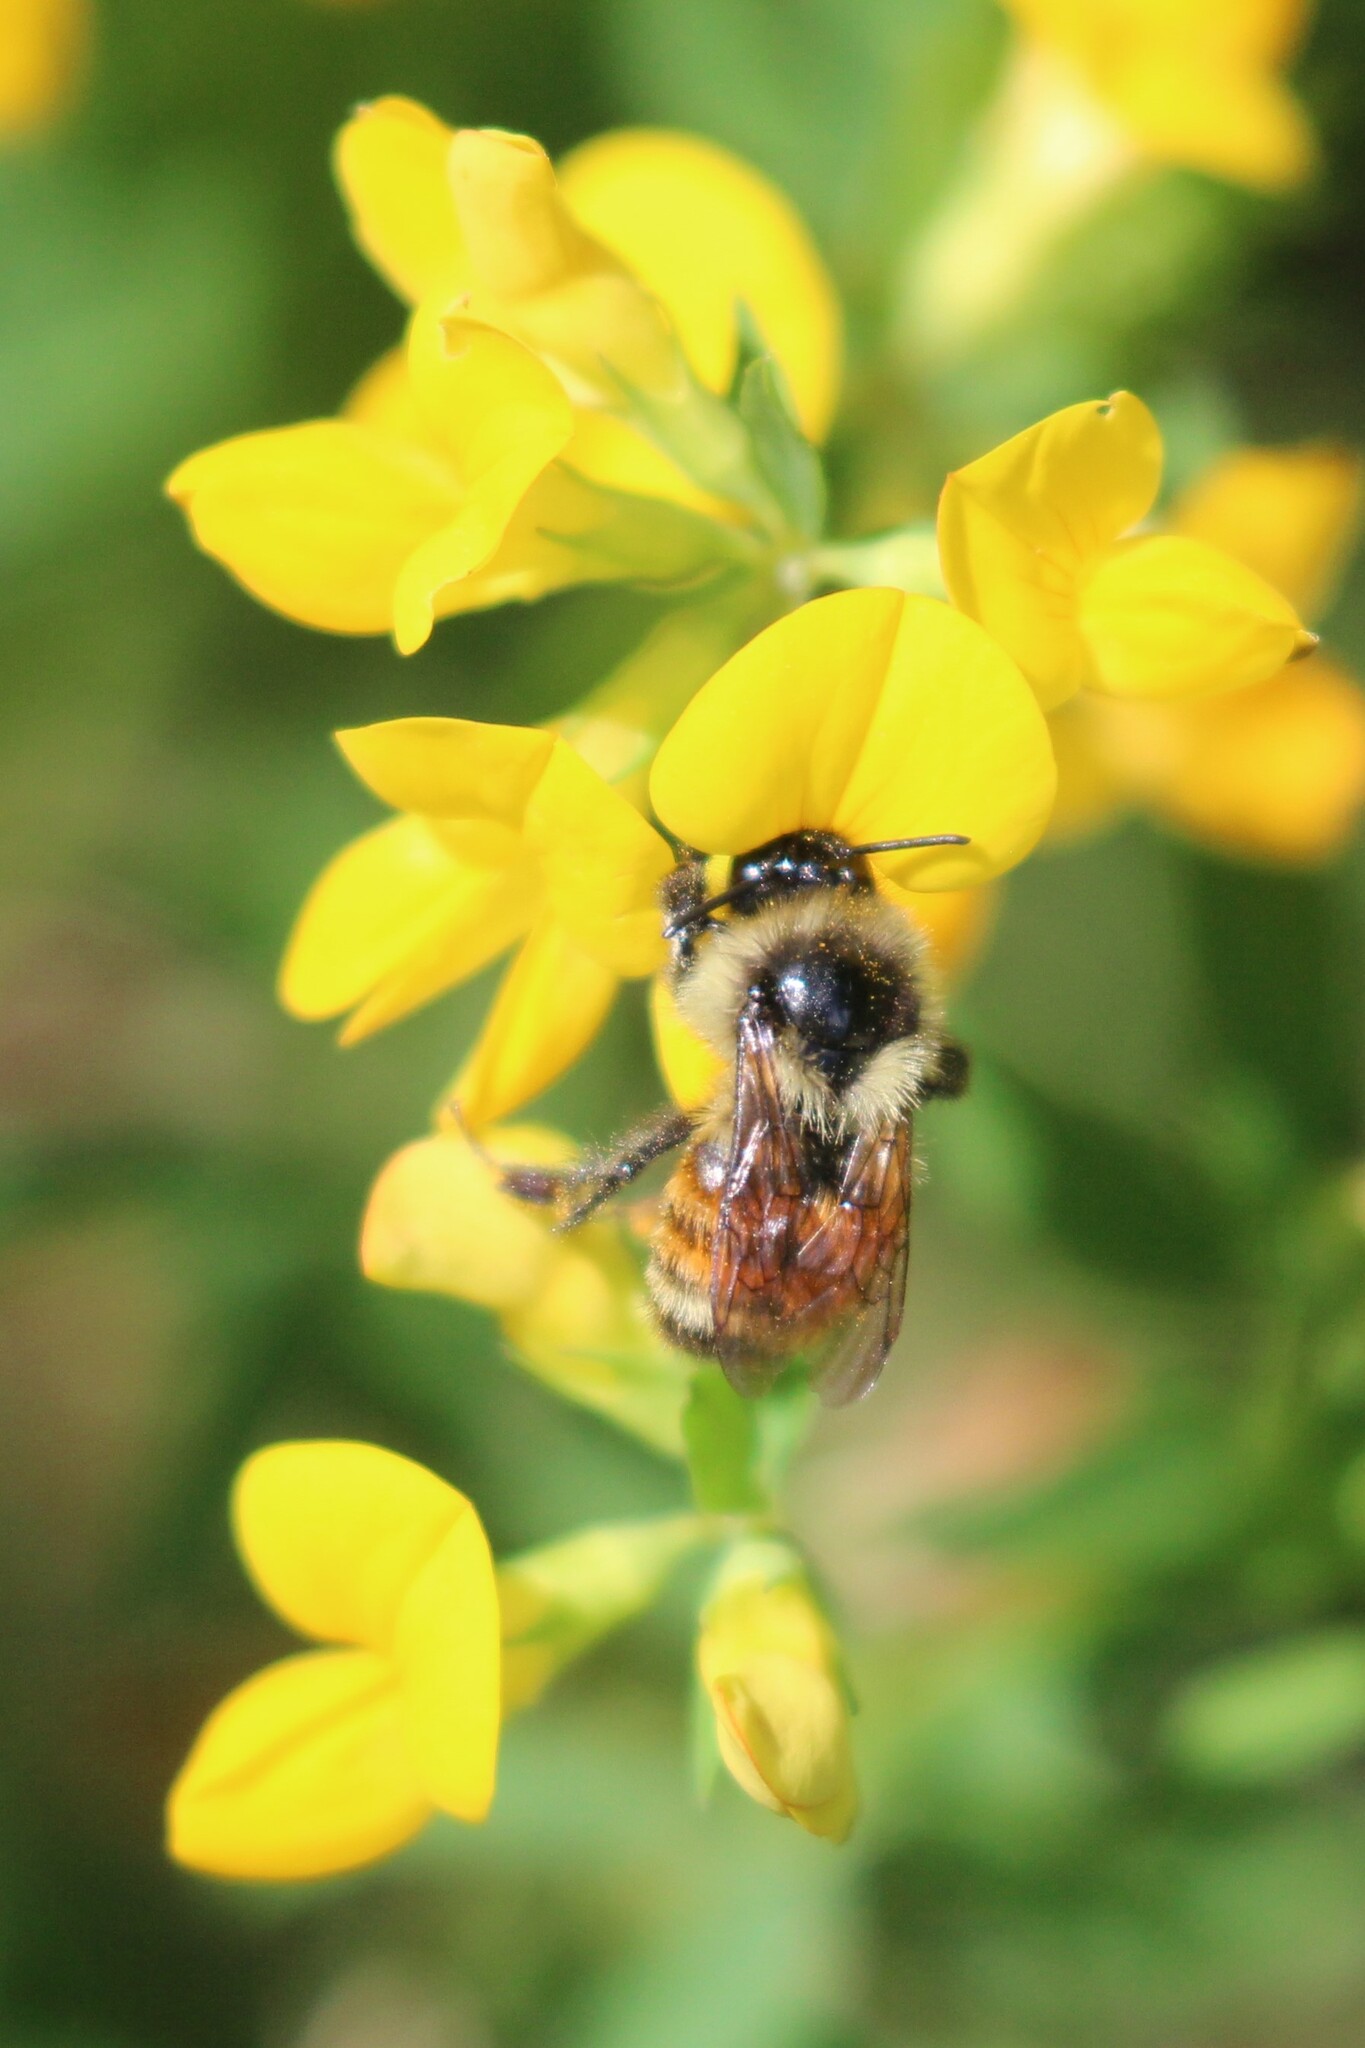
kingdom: Animalia
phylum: Arthropoda
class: Insecta
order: Hymenoptera
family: Apidae
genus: Bombus
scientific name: Bombus ternarius
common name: Tri-colored bumble bee
